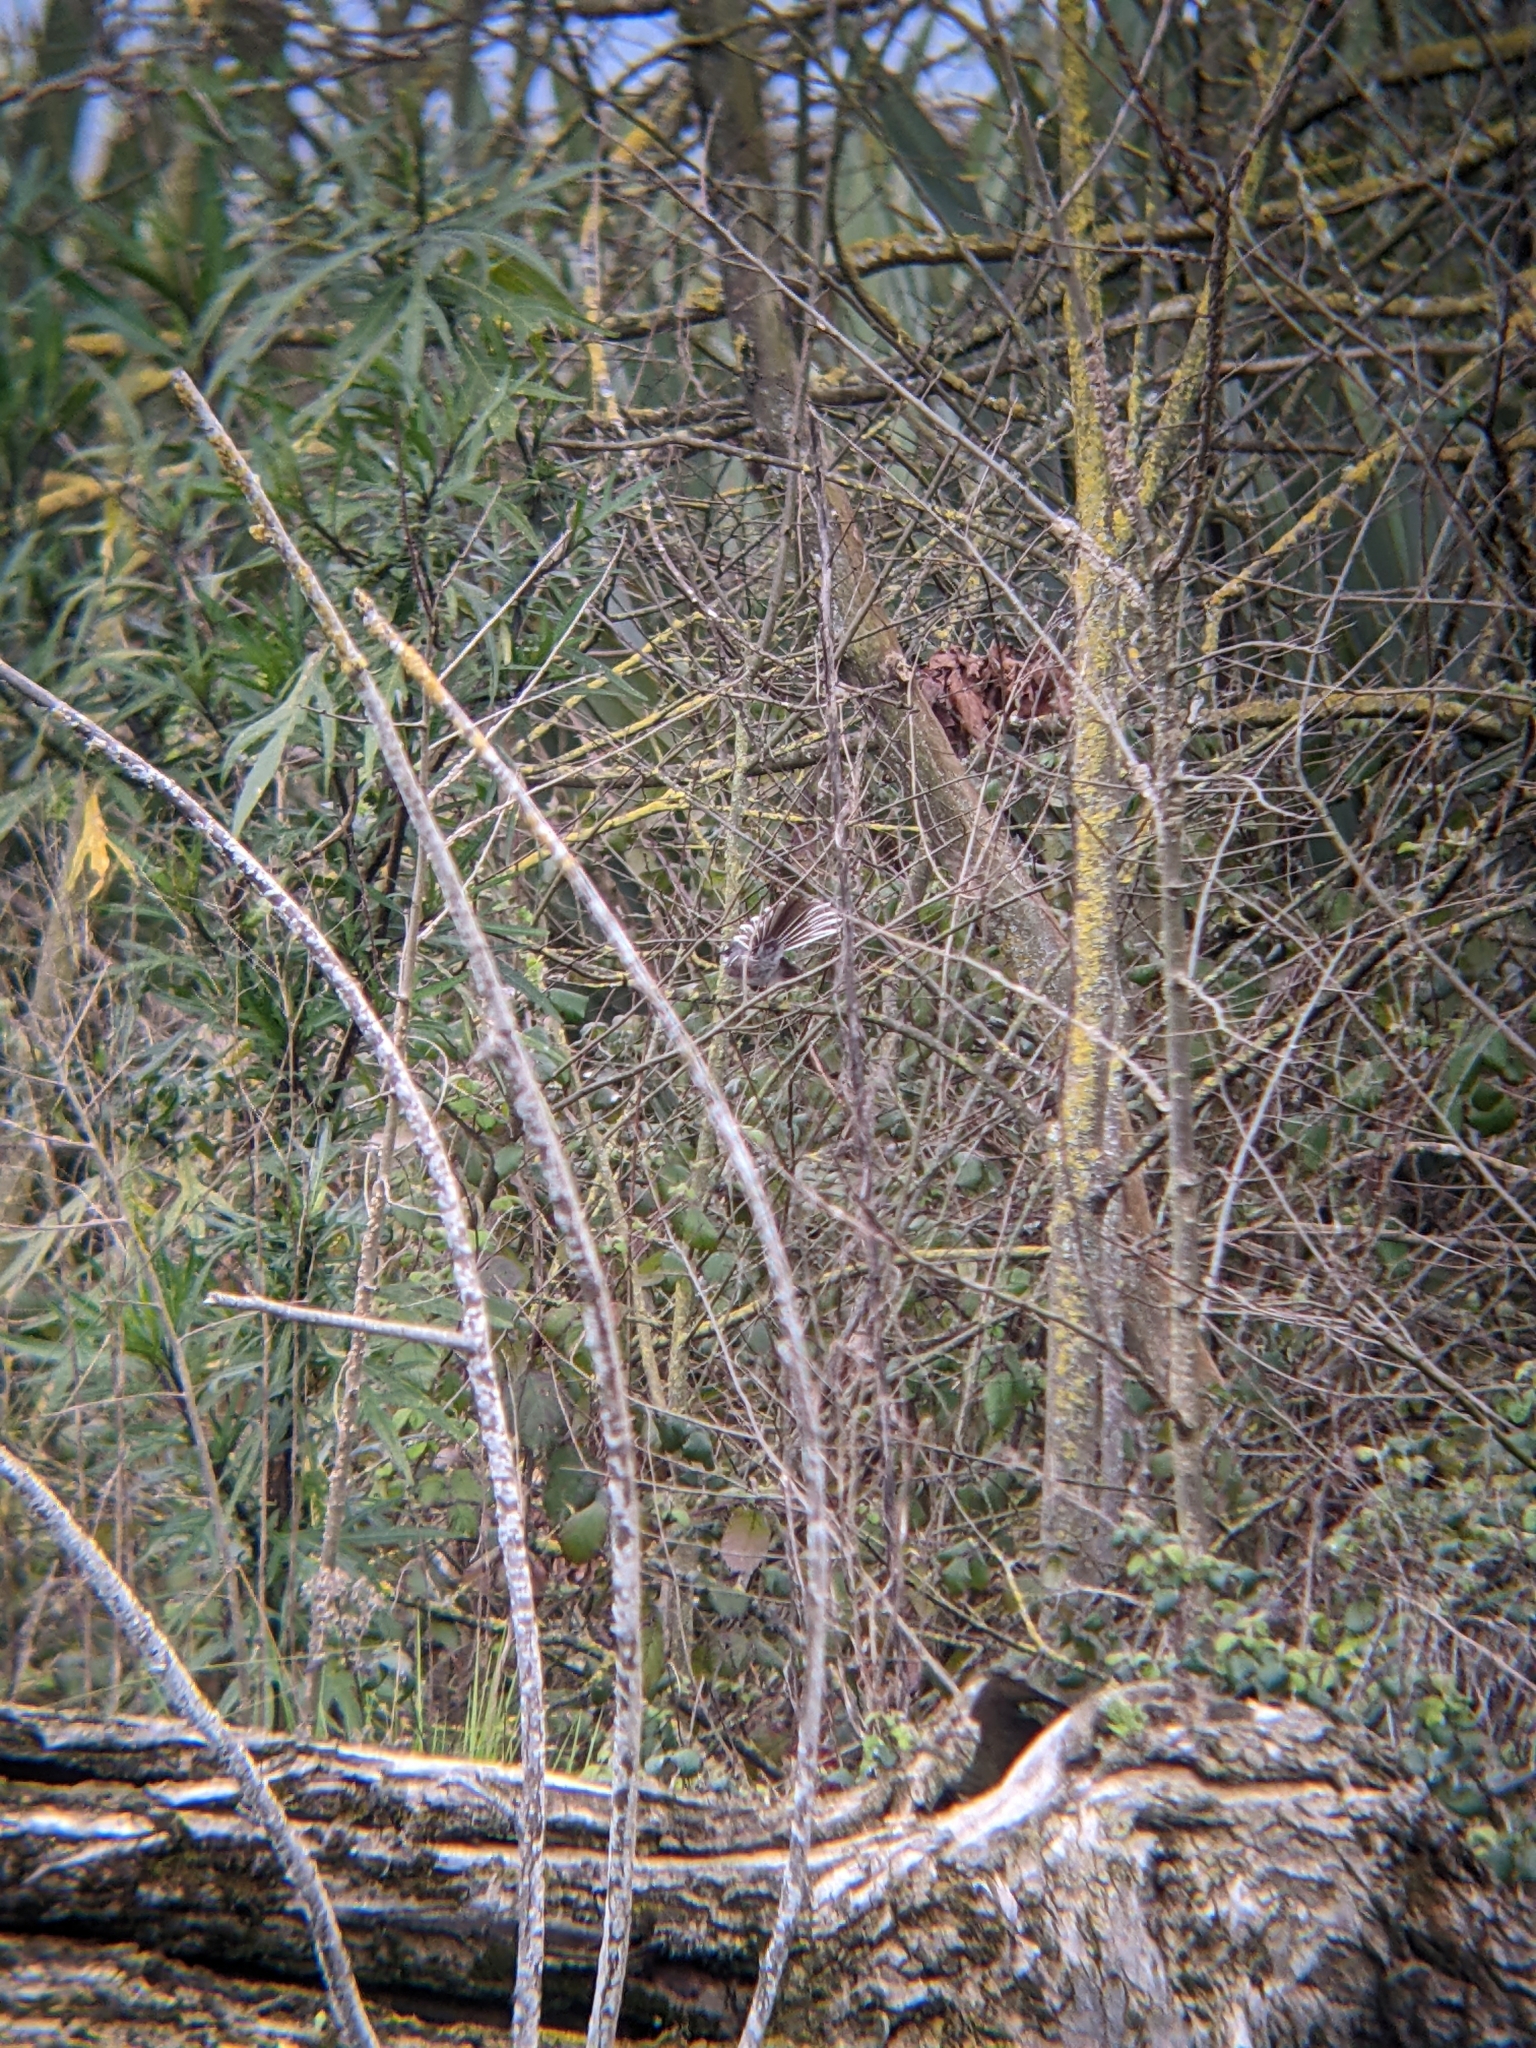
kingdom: Animalia
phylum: Chordata
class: Aves
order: Passeriformes
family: Rhipiduridae
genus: Rhipidura
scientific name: Rhipidura albiscapa
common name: Grey fantail
